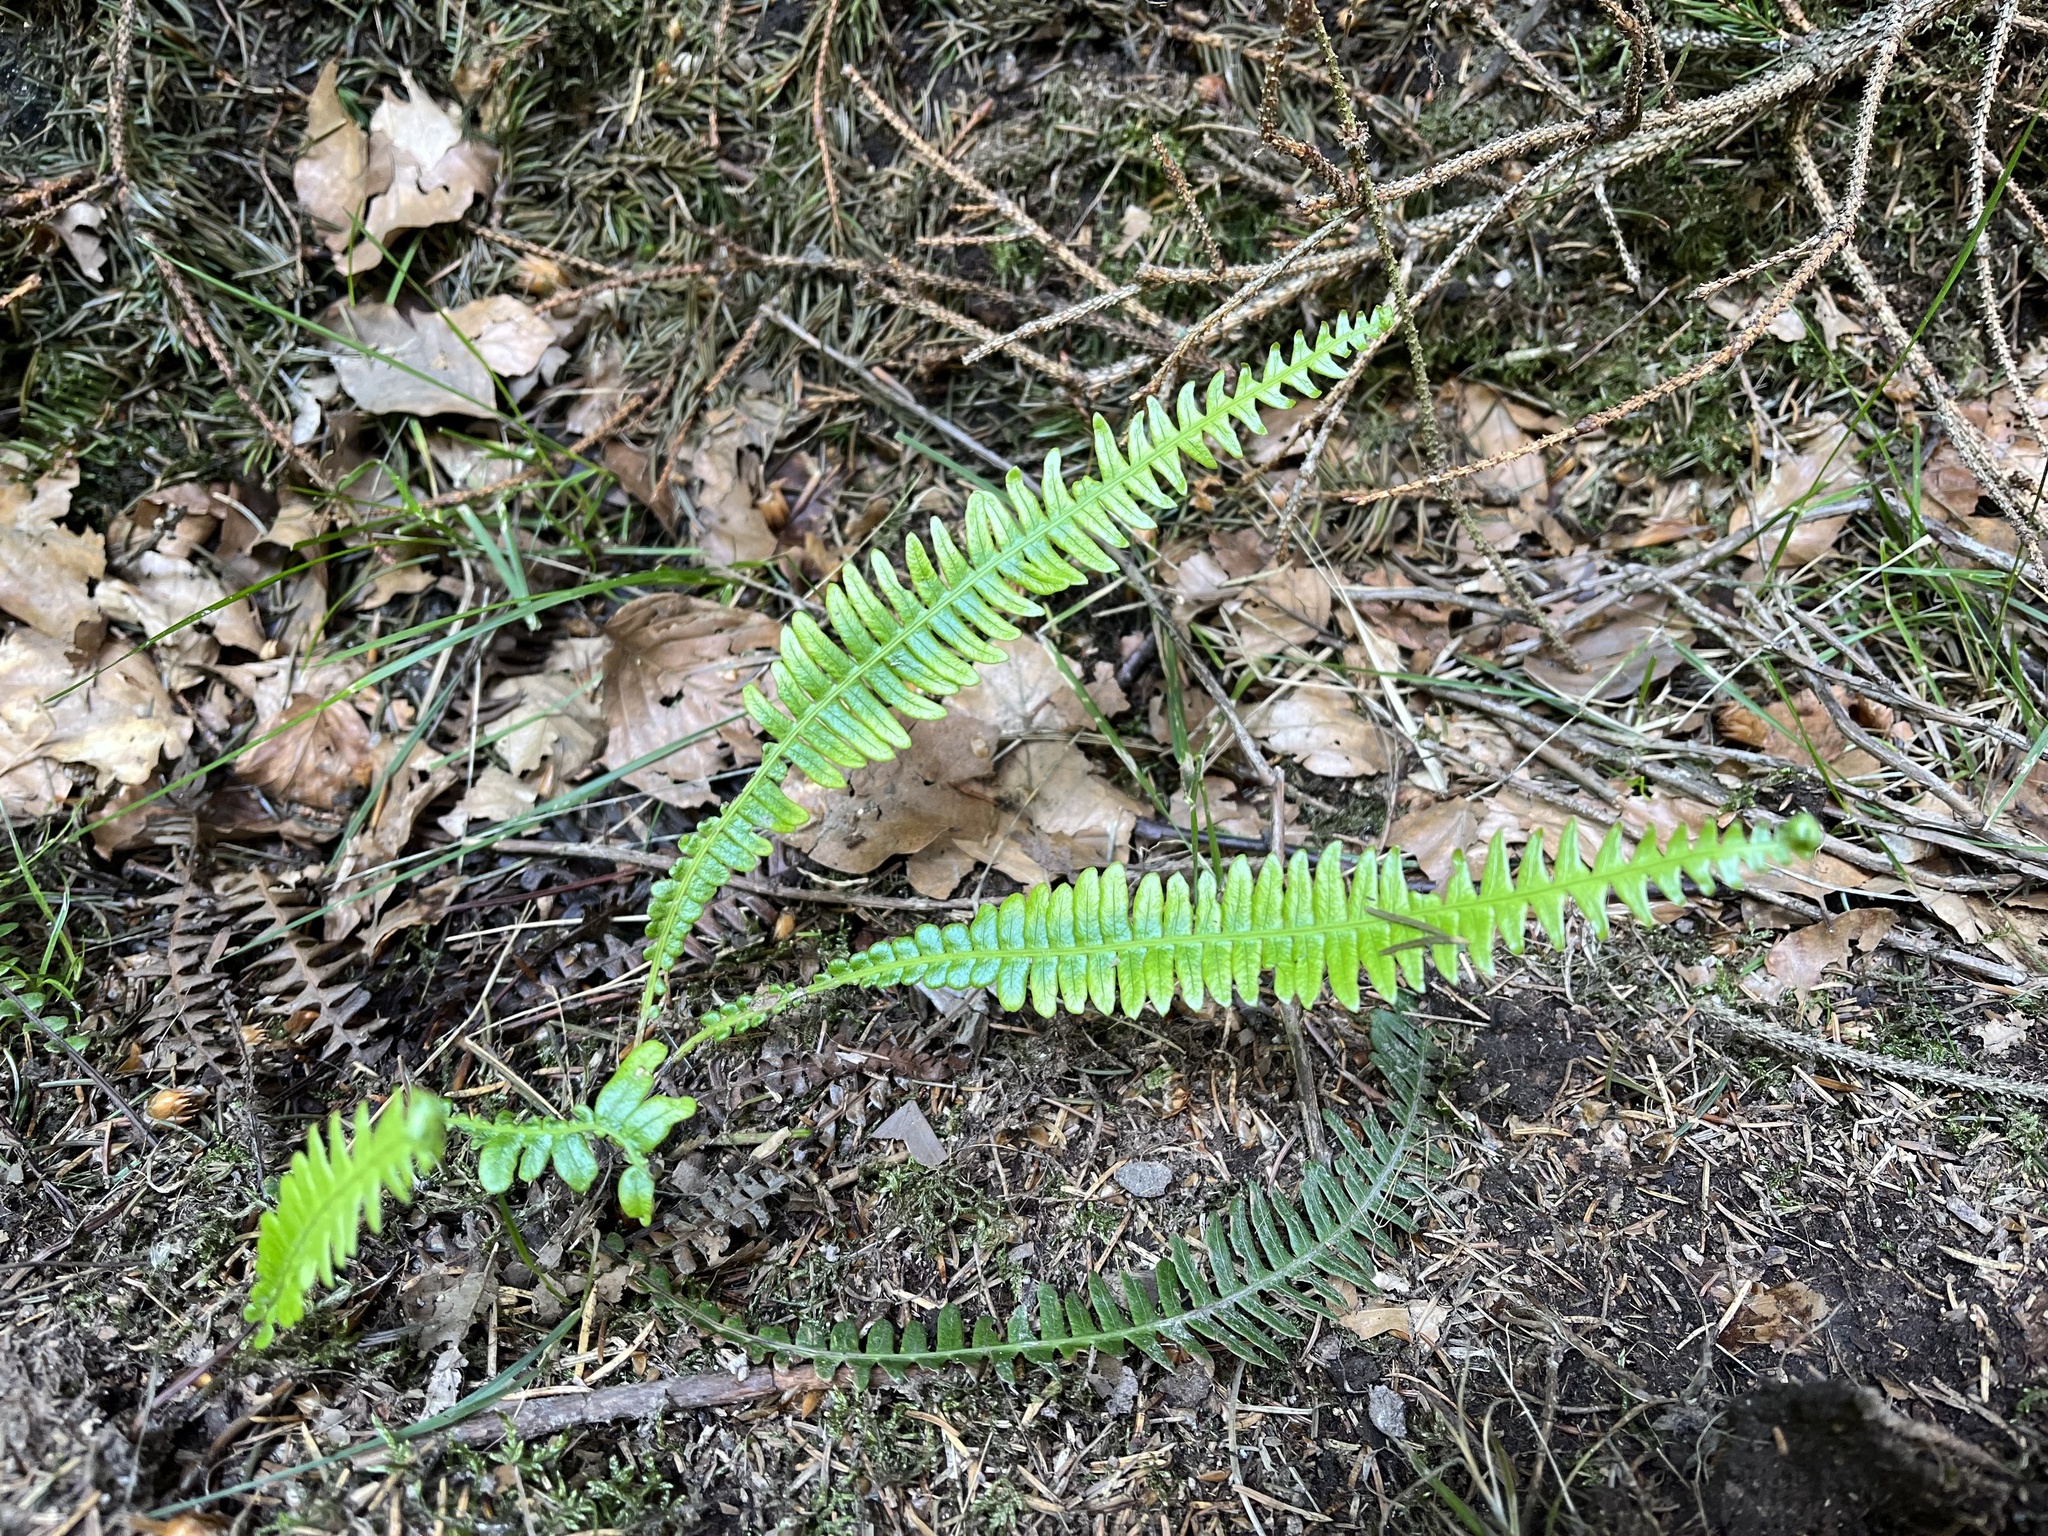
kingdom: Plantae
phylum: Tracheophyta
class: Polypodiopsida
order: Polypodiales
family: Blechnaceae
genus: Struthiopteris
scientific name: Struthiopteris spicant
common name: Deer fern
